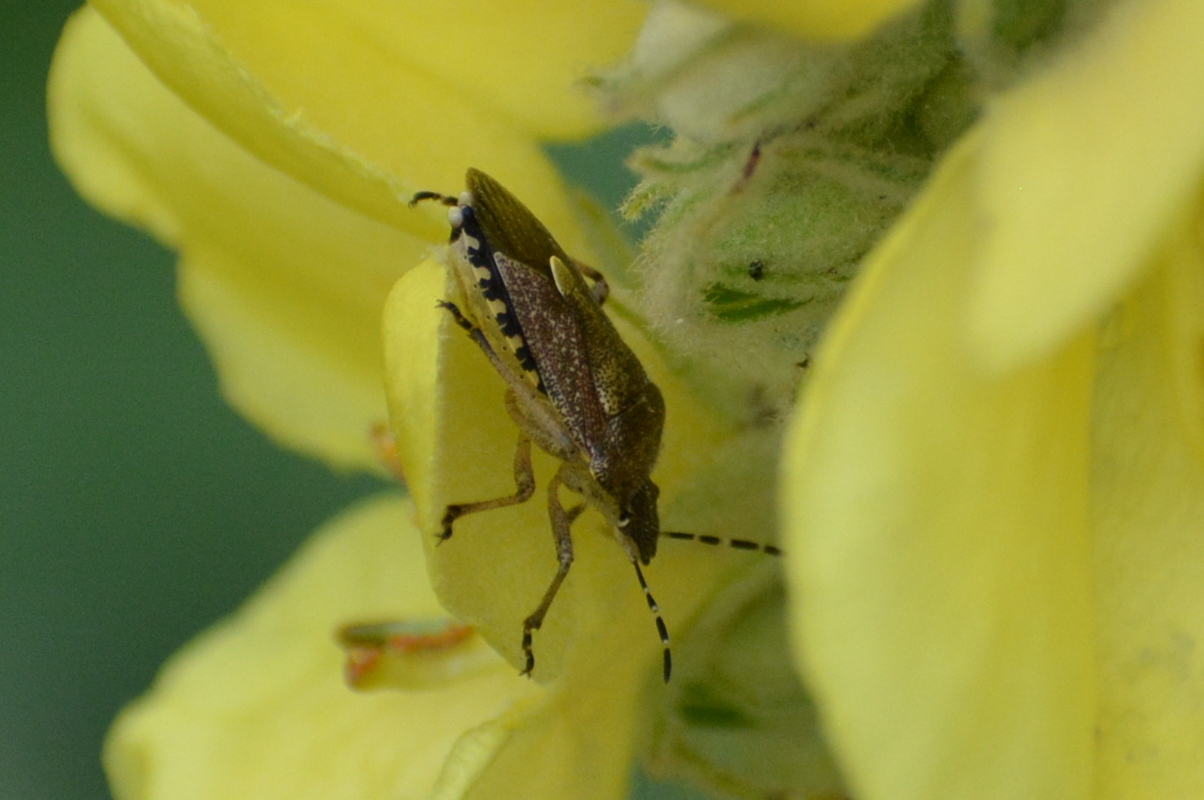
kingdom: Animalia
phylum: Arthropoda
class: Insecta
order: Hemiptera
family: Pentatomidae
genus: Dolycoris
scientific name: Dolycoris baccarum
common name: Sloe bug
